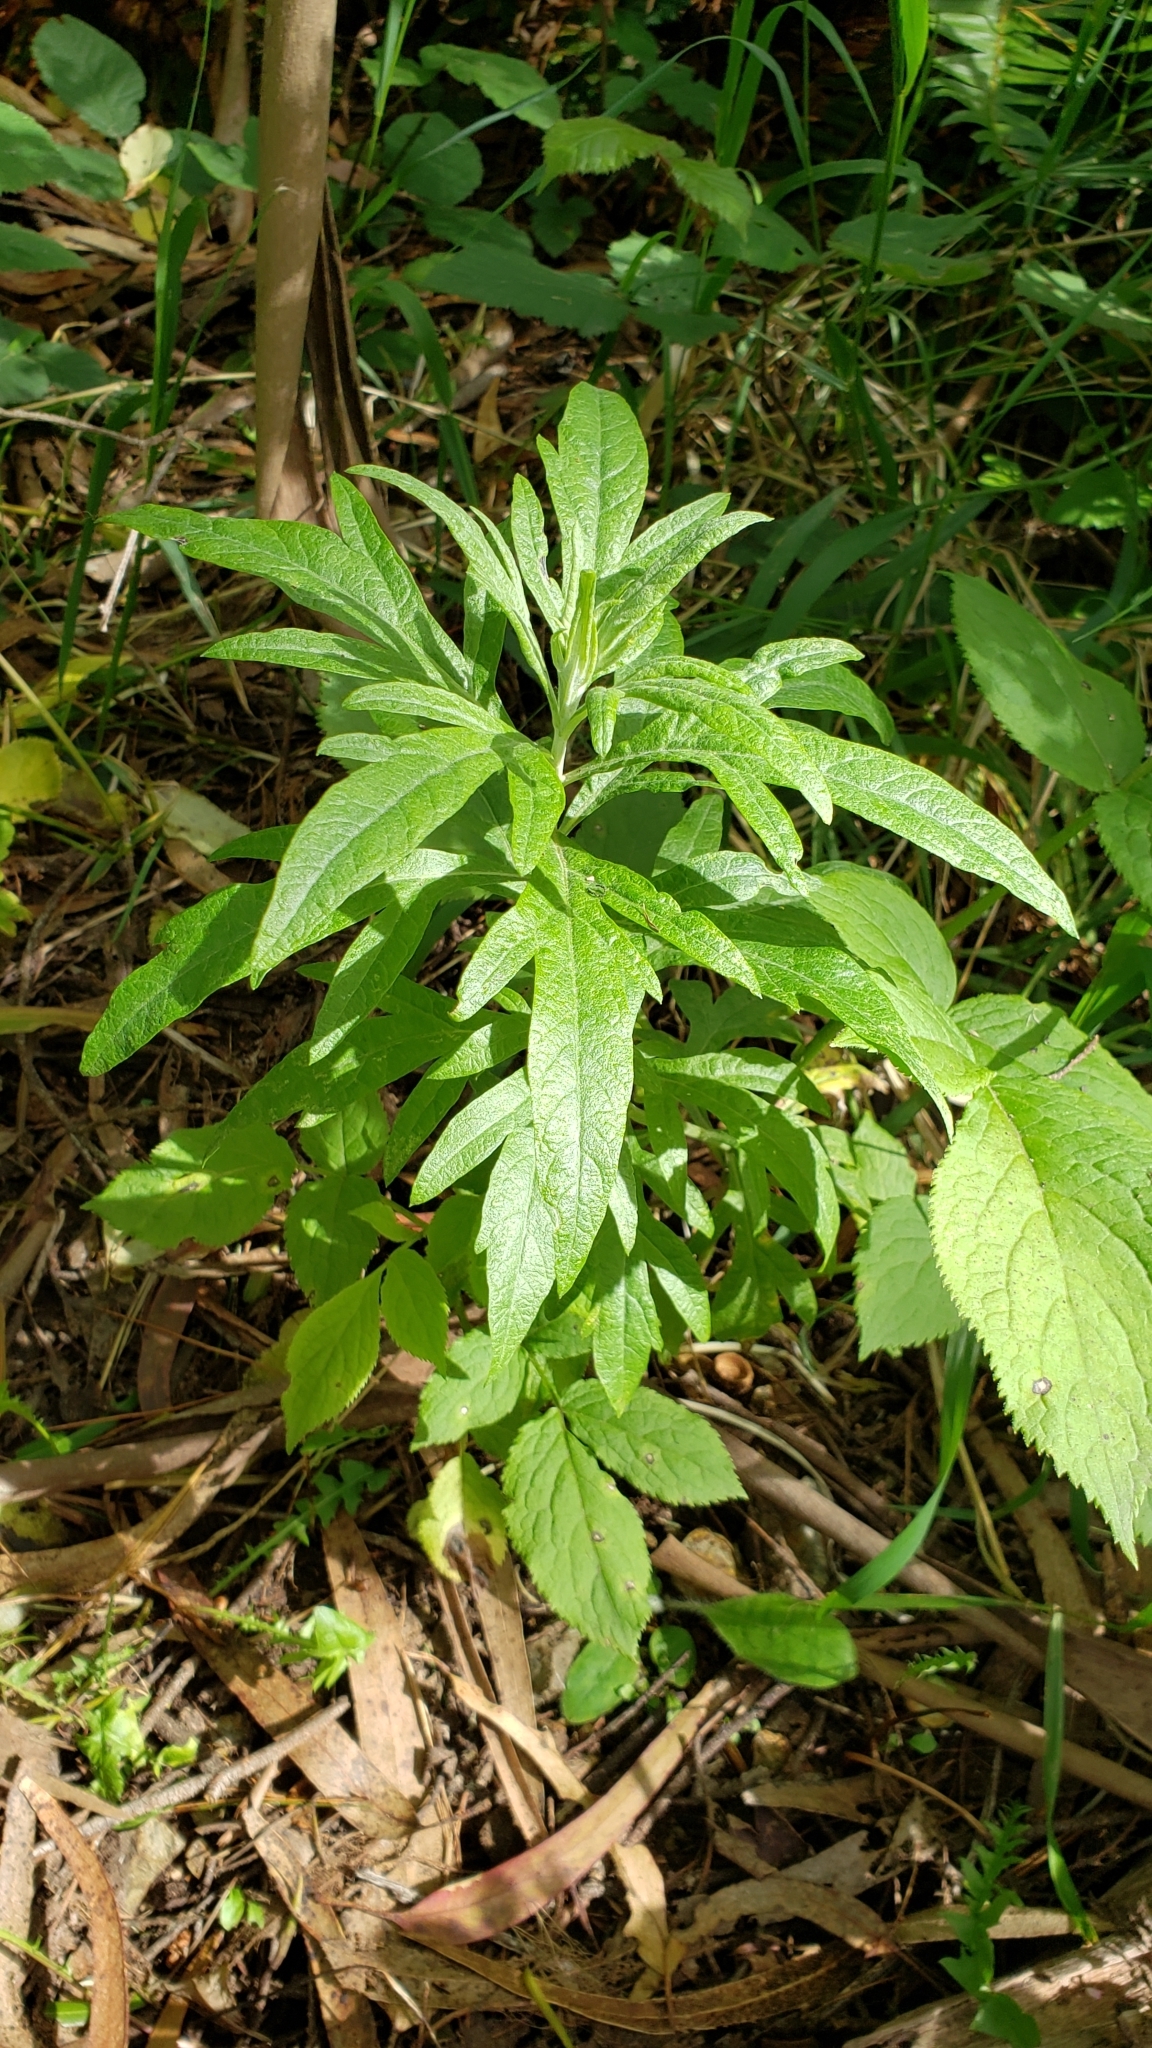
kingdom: Plantae
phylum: Tracheophyta
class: Magnoliopsida
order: Asterales
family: Asteraceae
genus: Artemisia
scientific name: Artemisia douglasiana
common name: Northwest mugwort
